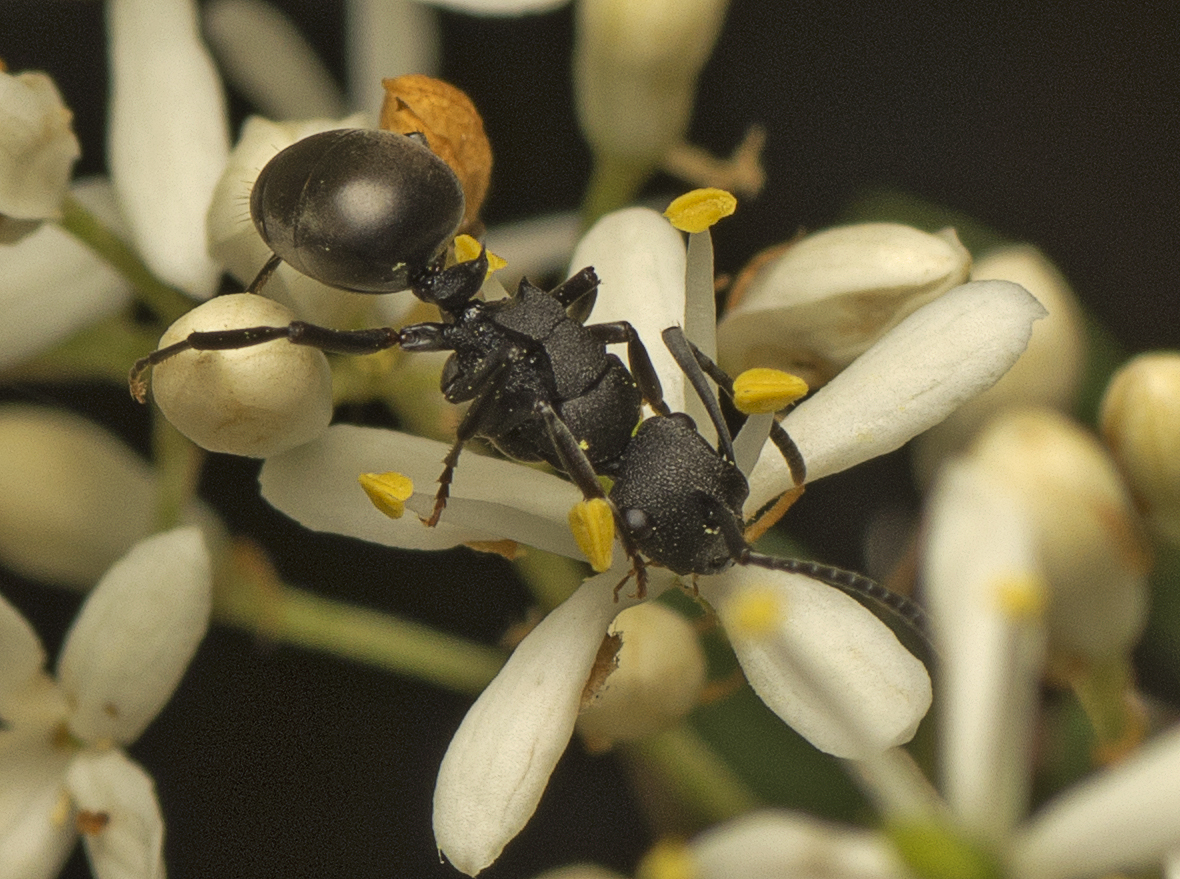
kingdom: Animalia
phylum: Arthropoda
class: Insecta
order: Hymenoptera
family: Formicidae
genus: Polyrhachis
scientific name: Polyrhachis phryne
